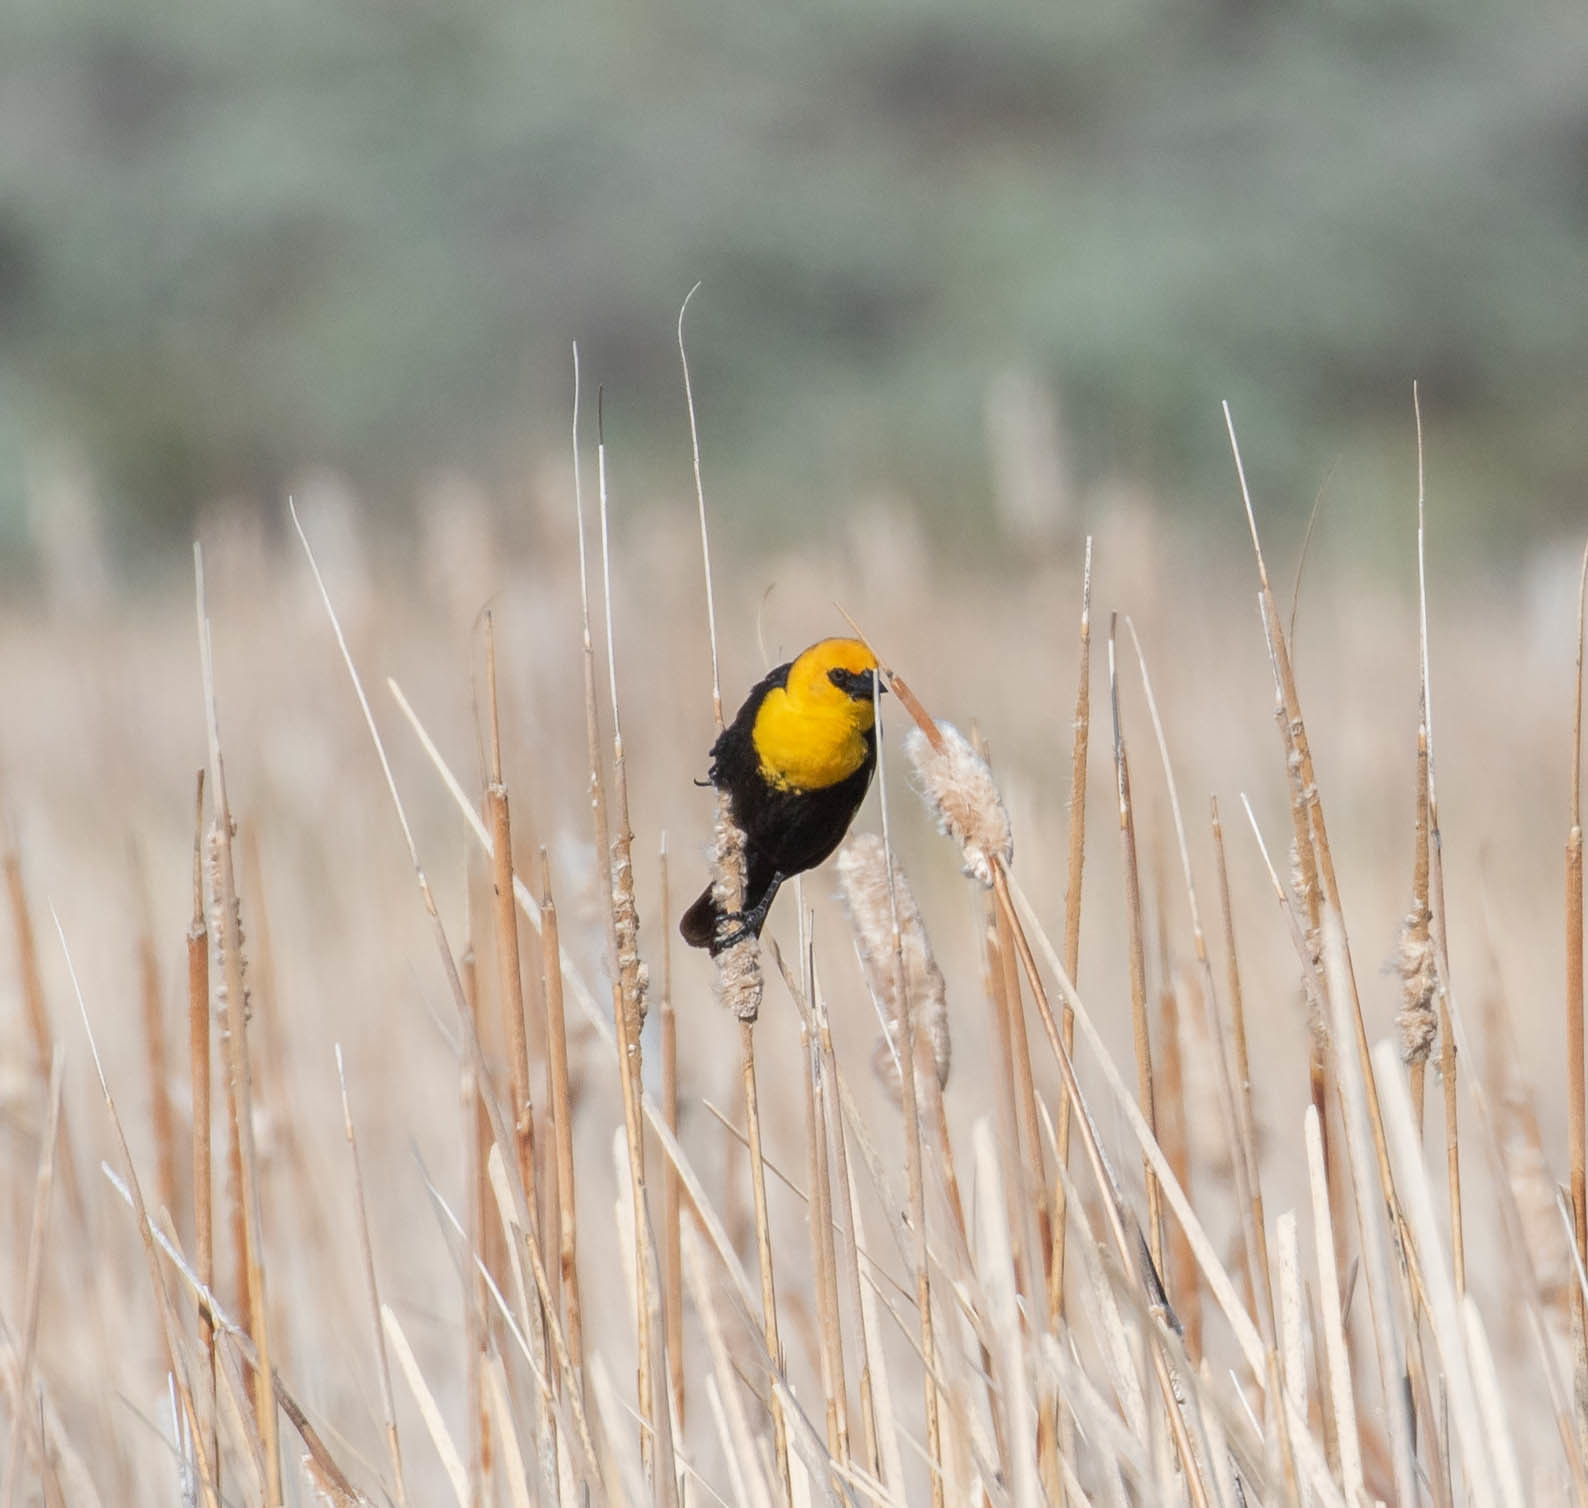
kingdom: Animalia
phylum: Chordata
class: Aves
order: Passeriformes
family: Icteridae
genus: Xanthocephalus
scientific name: Xanthocephalus xanthocephalus
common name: Yellow-headed blackbird
